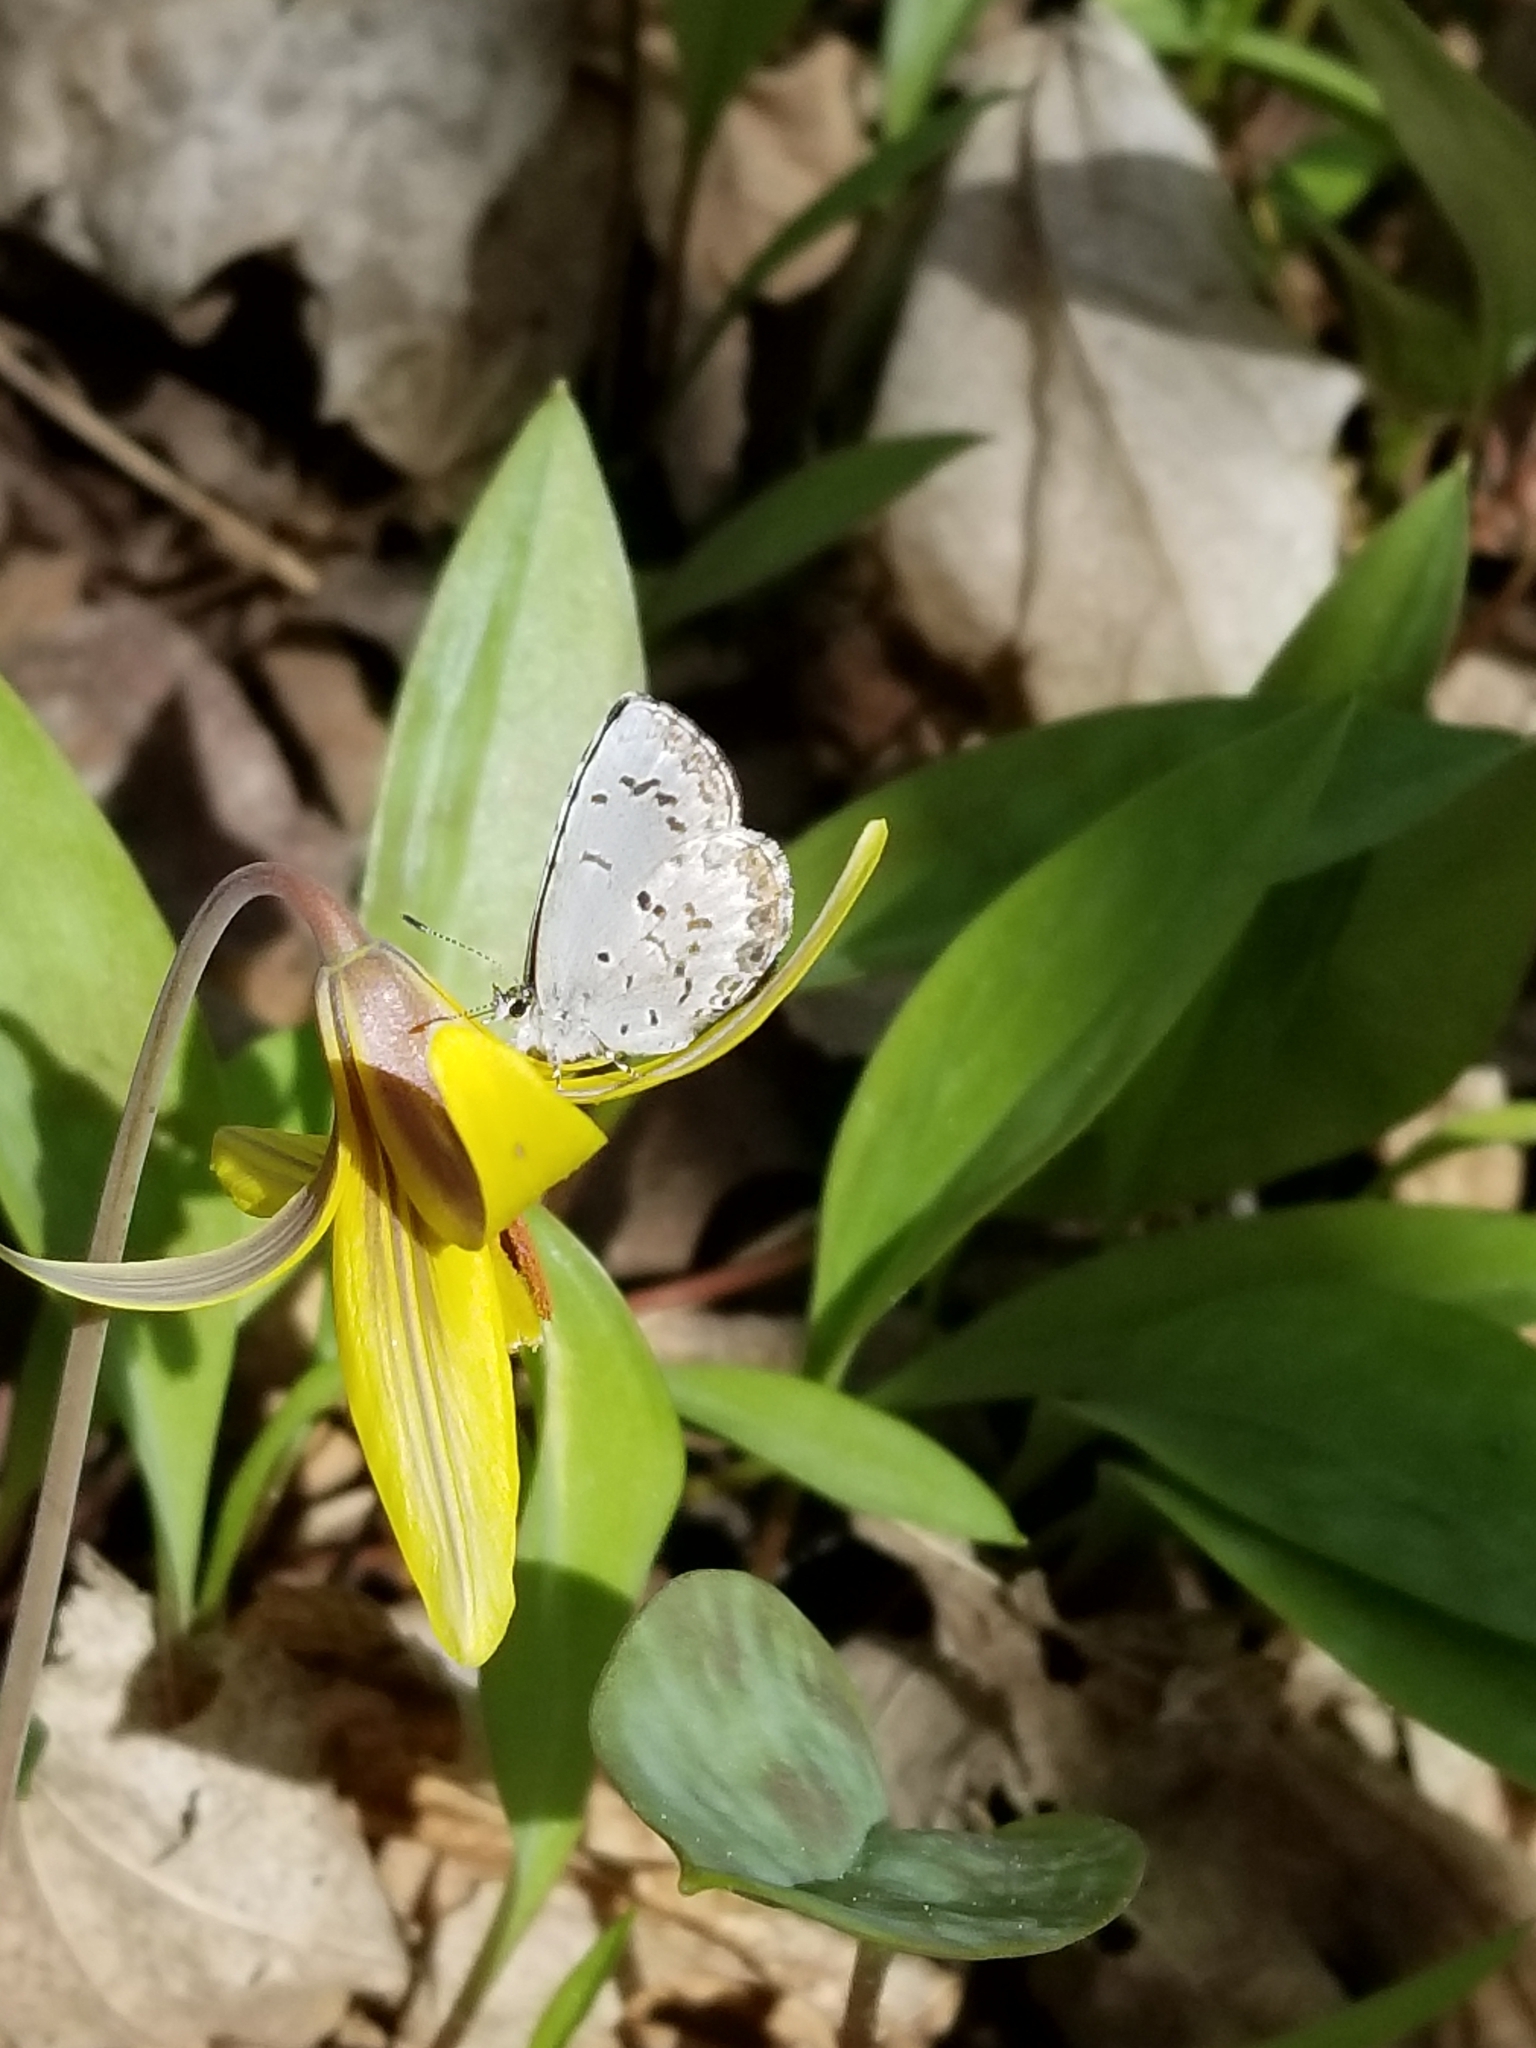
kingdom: Animalia
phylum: Arthropoda
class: Insecta
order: Lepidoptera
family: Lycaenidae
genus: Celastrina
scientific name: Celastrina lucia
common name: Lucia azure
